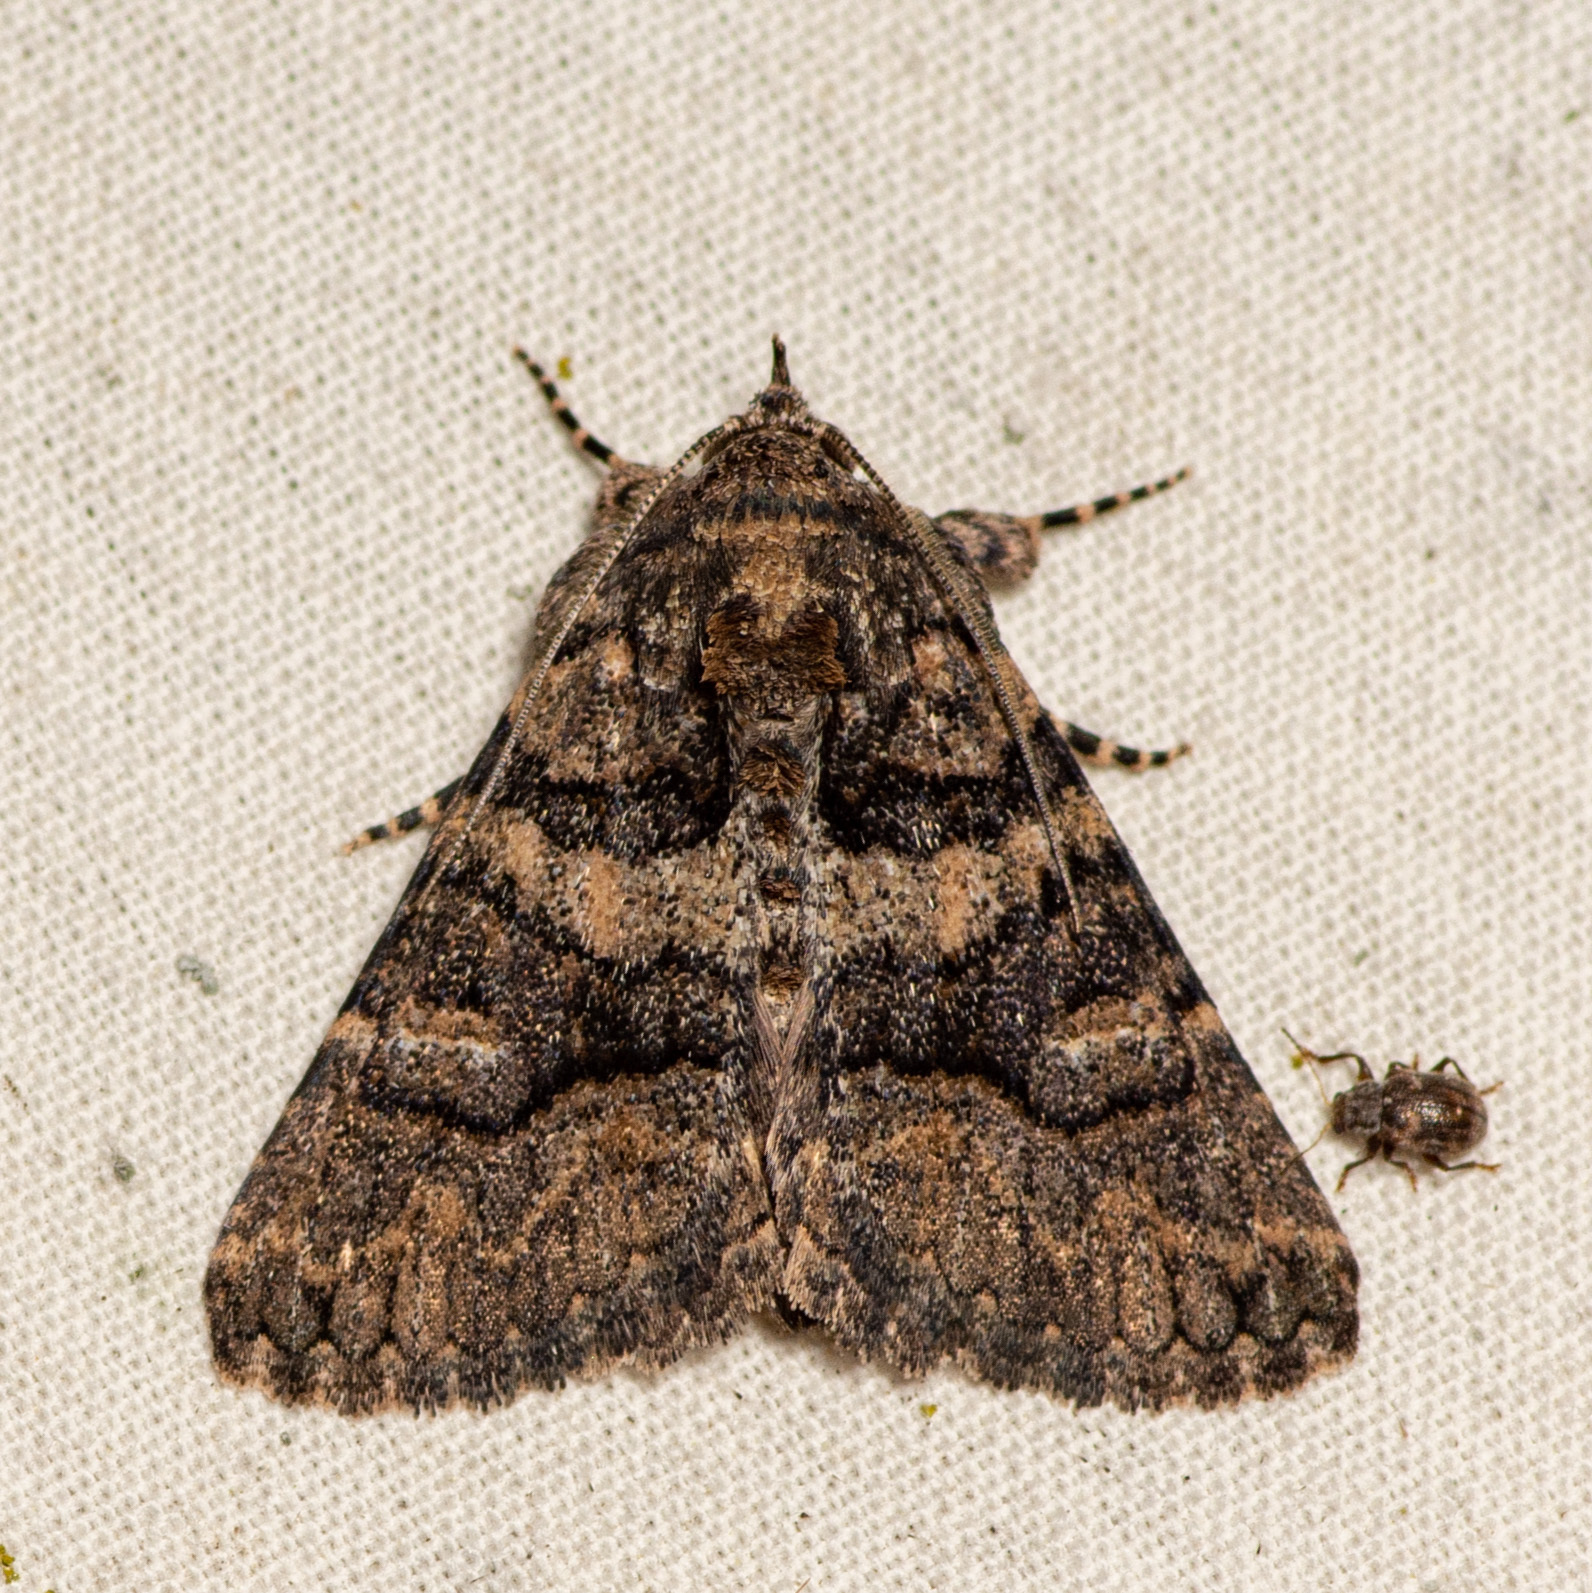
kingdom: Animalia
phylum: Arthropoda
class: Insecta
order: Lepidoptera
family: Erebidae
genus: Elousa
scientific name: Elousa mima
